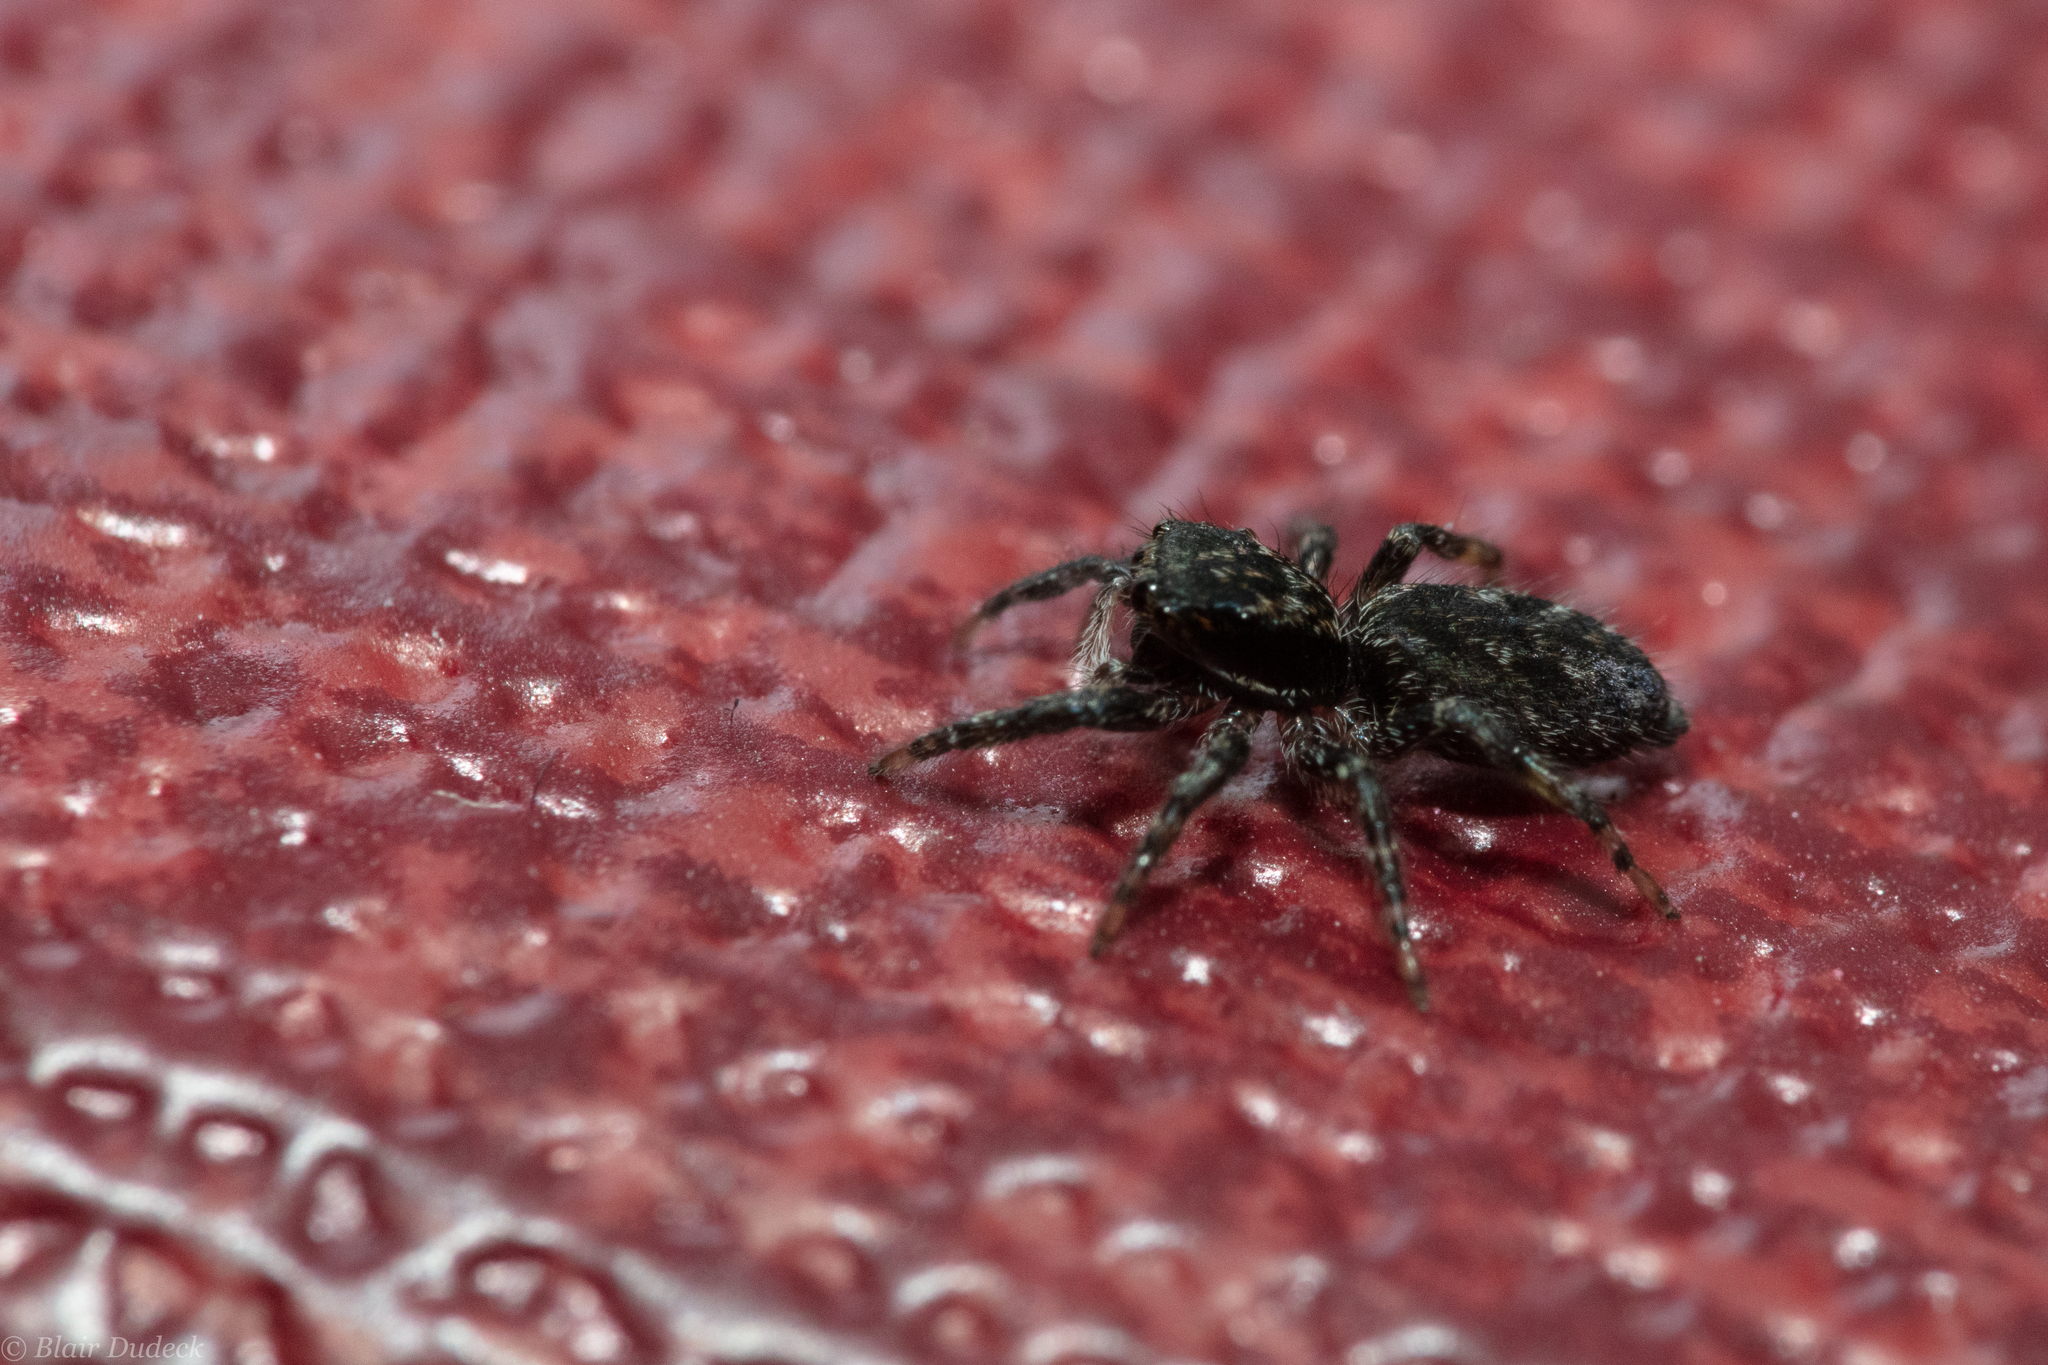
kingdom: Animalia
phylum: Arthropoda
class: Arachnida
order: Araneae
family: Salticidae
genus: Platycryptus
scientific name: Platycryptus californicus
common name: Jumping spiders
